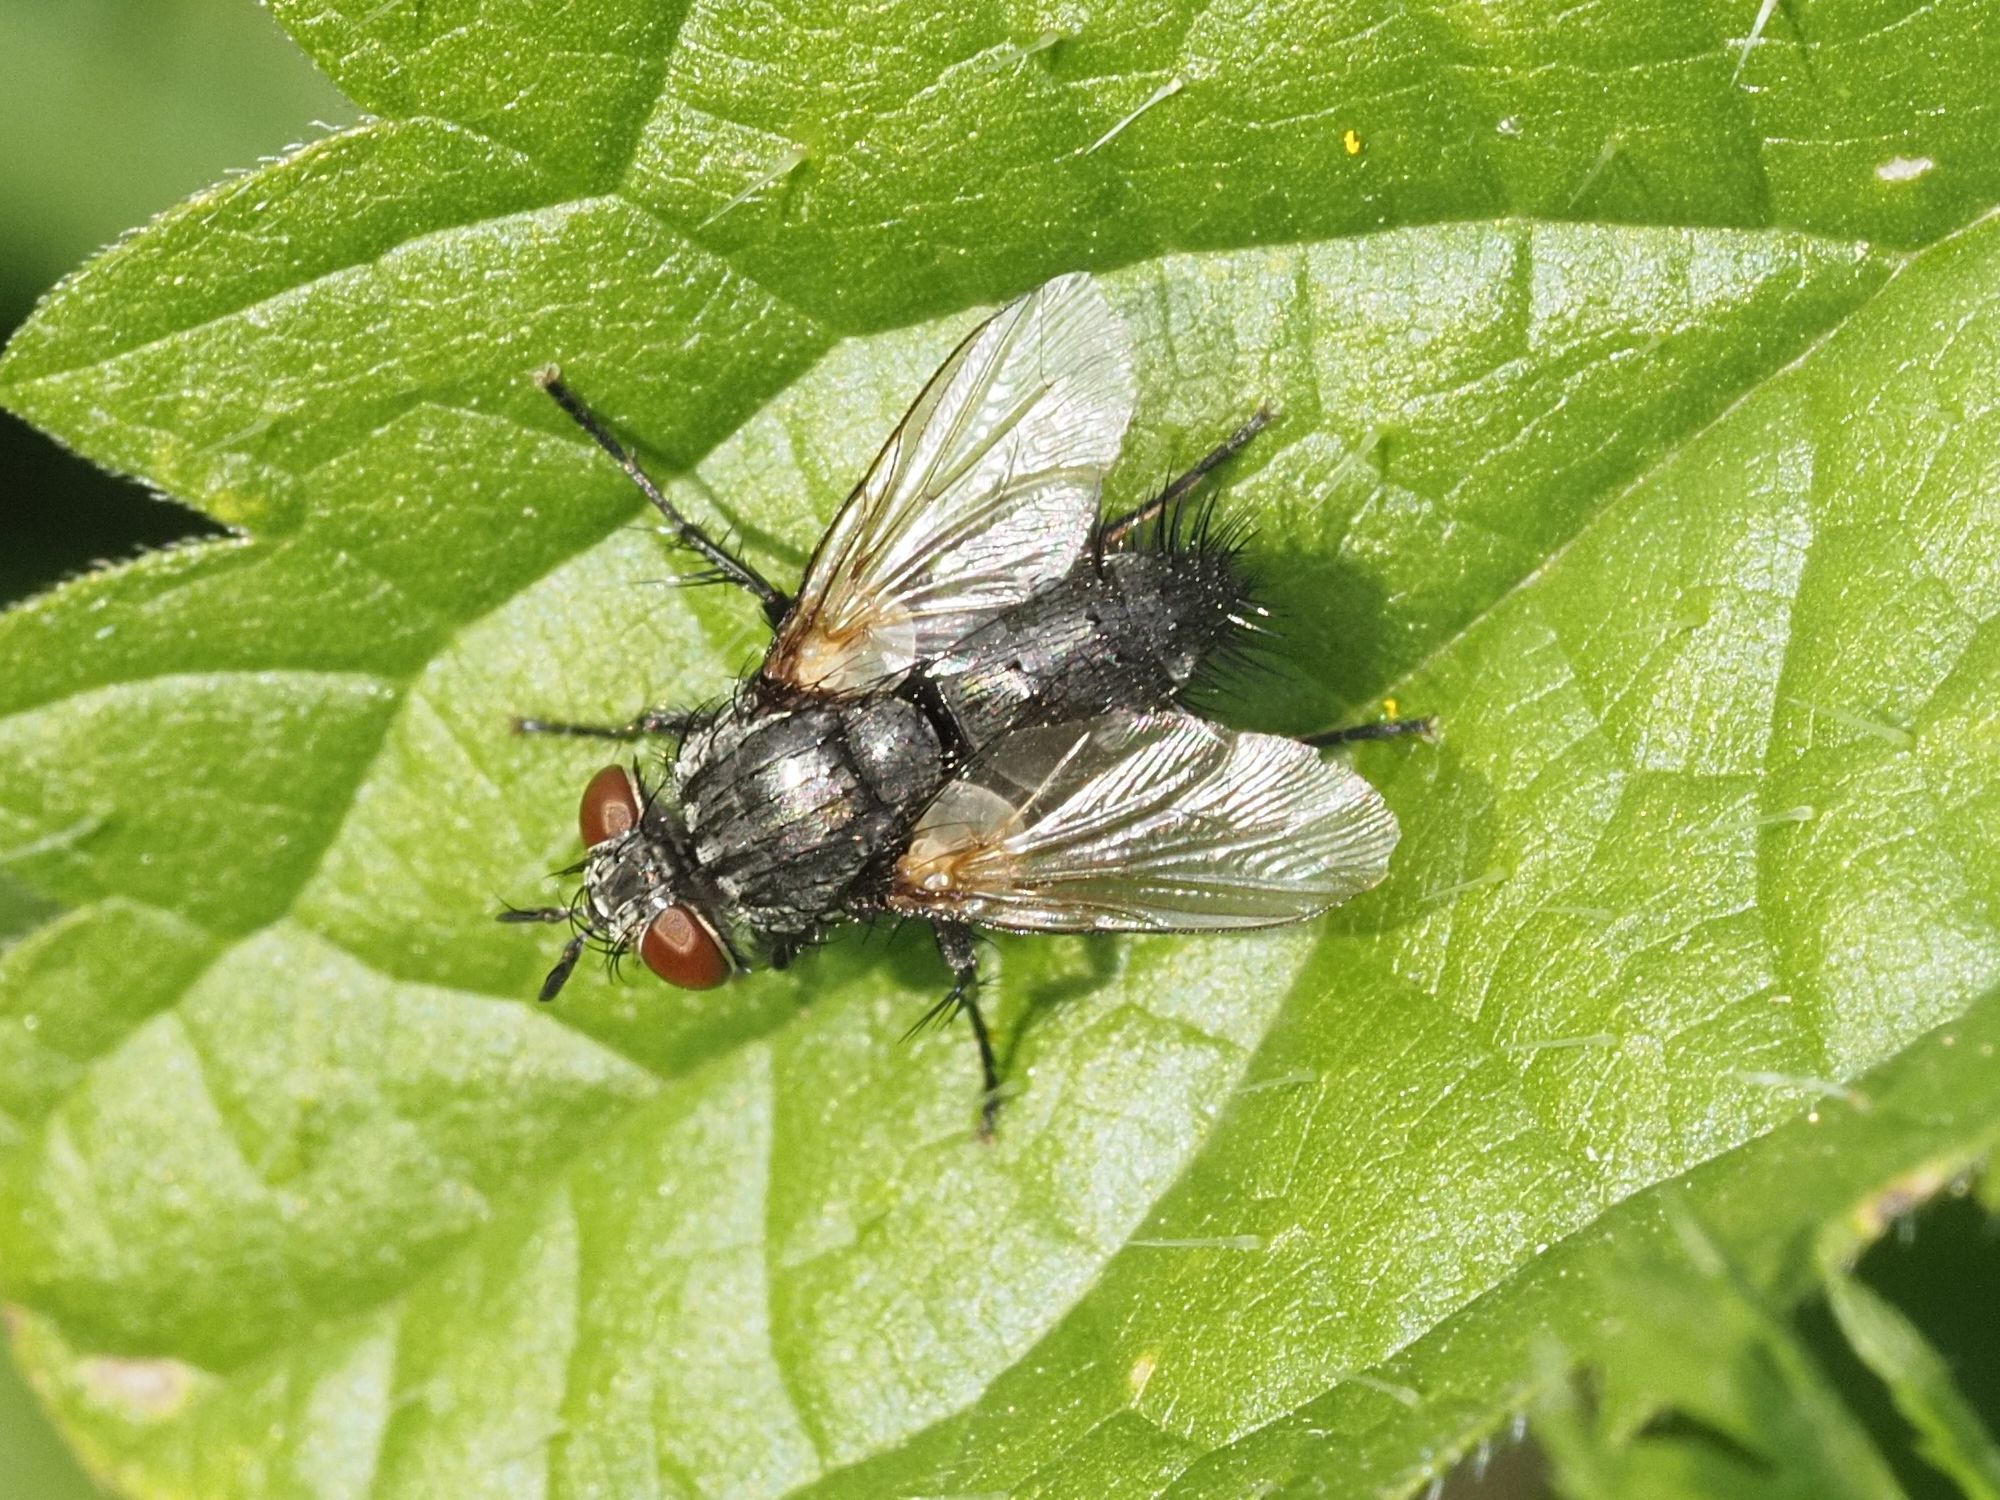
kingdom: Animalia
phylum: Arthropoda
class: Insecta
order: Diptera
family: Tachinidae
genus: Voria
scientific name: Voria ruralis
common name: Parasitic fly
